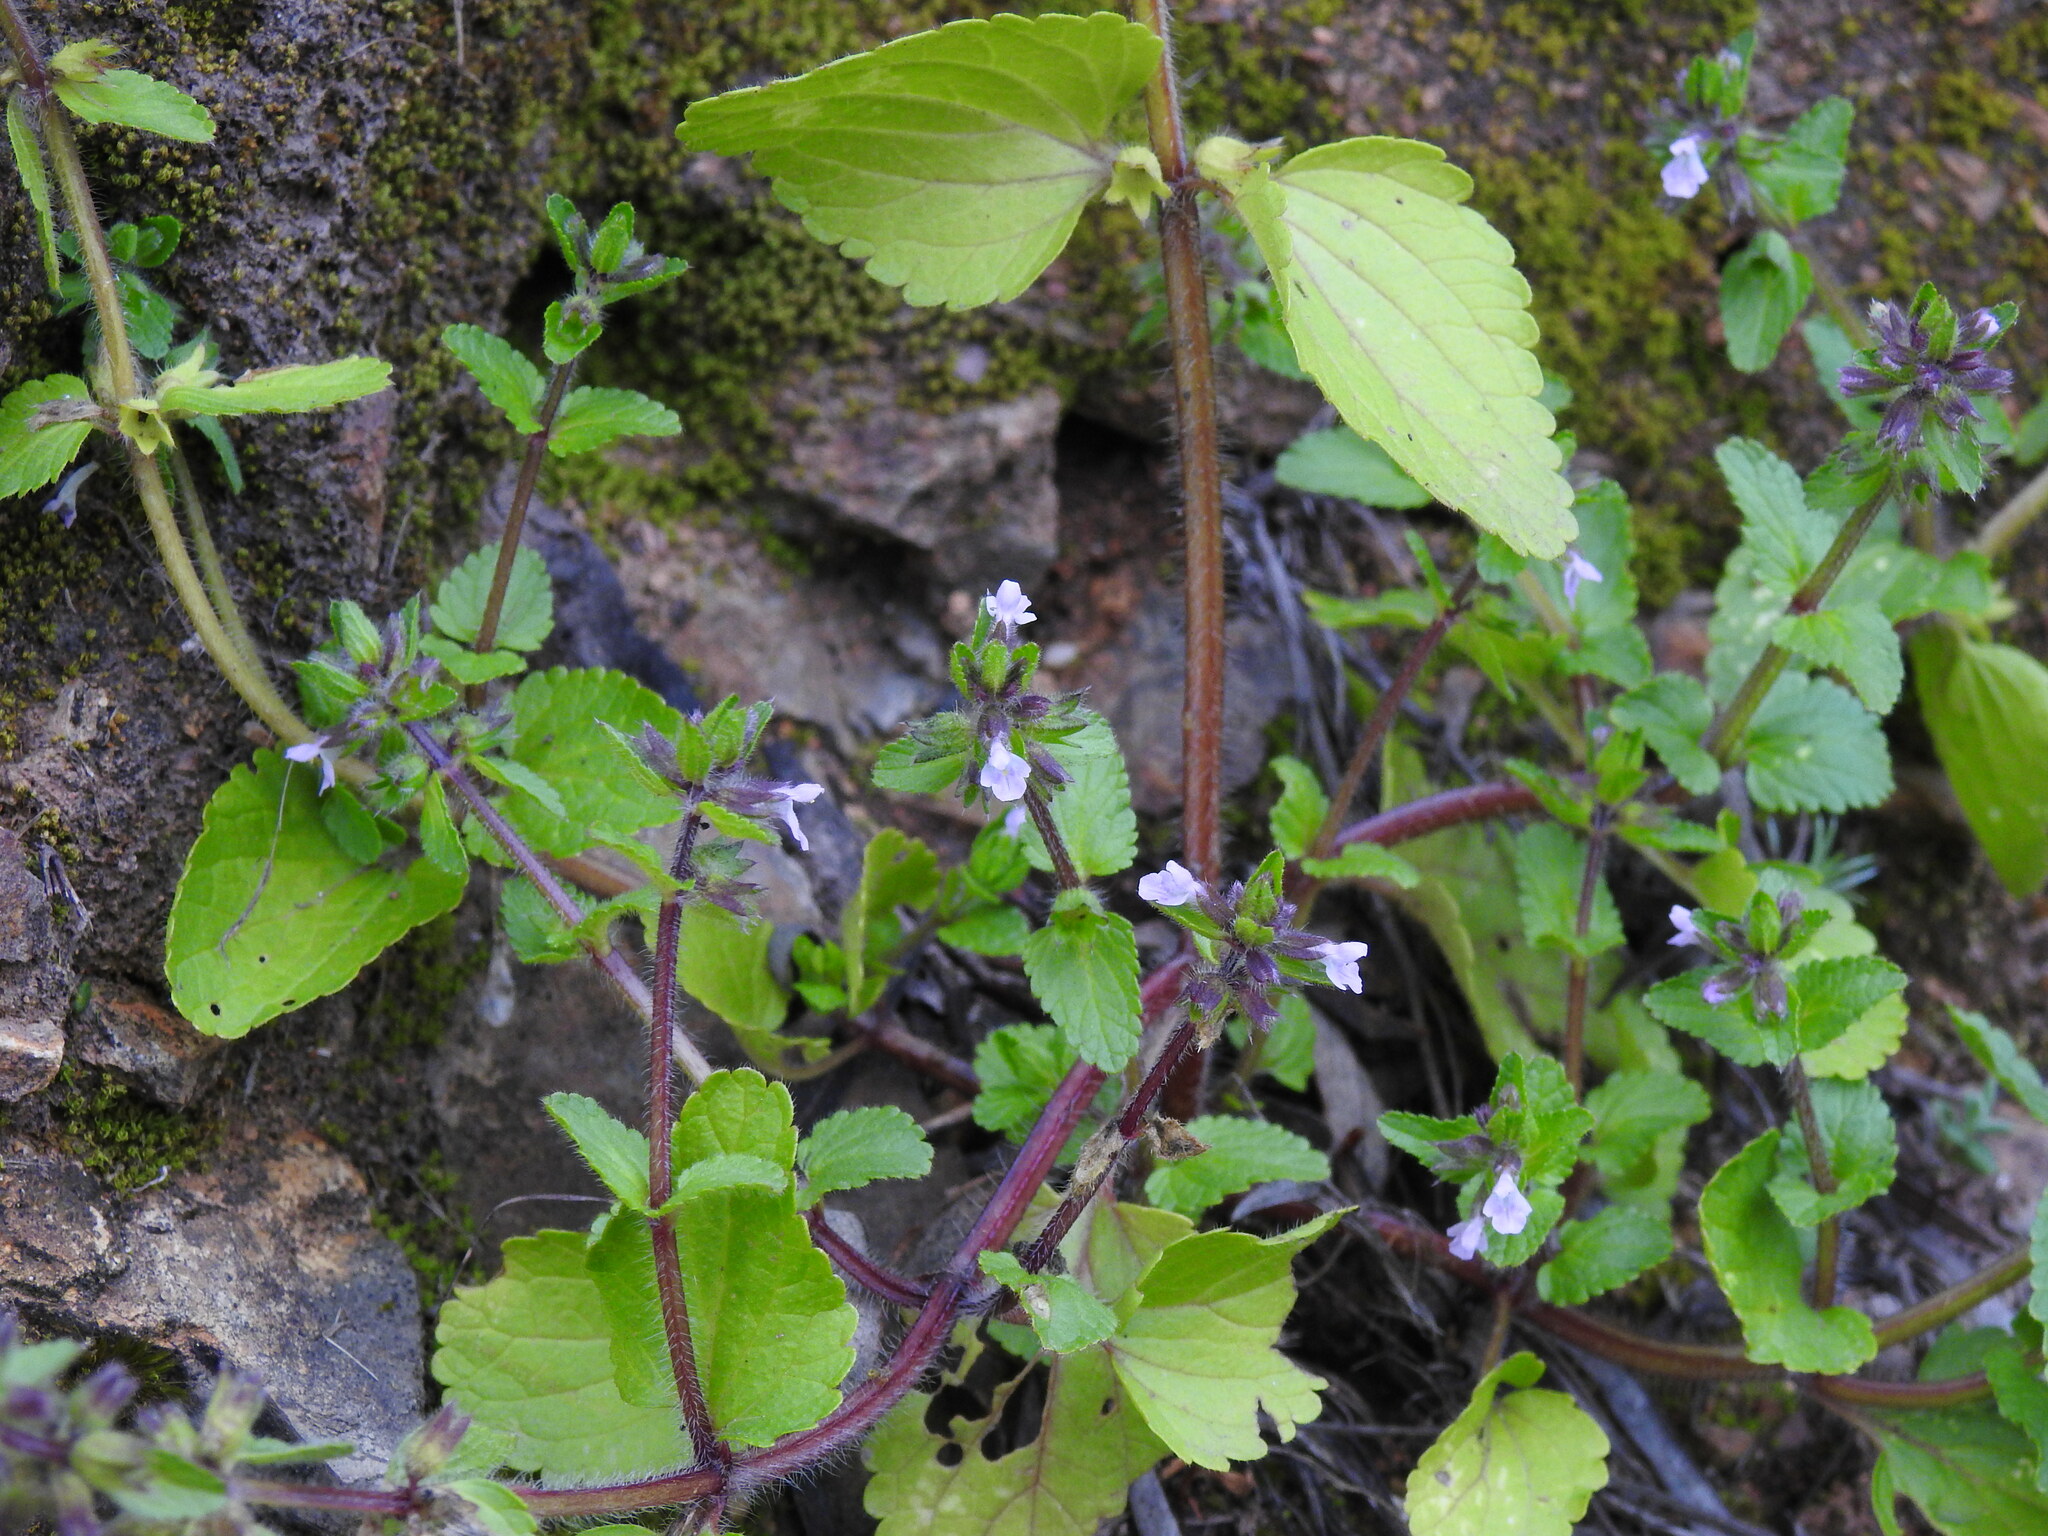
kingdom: Plantae
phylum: Tracheophyta
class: Magnoliopsida
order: Lamiales
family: Lamiaceae
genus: Stachys
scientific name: Stachys arvensis
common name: Field woundwort
